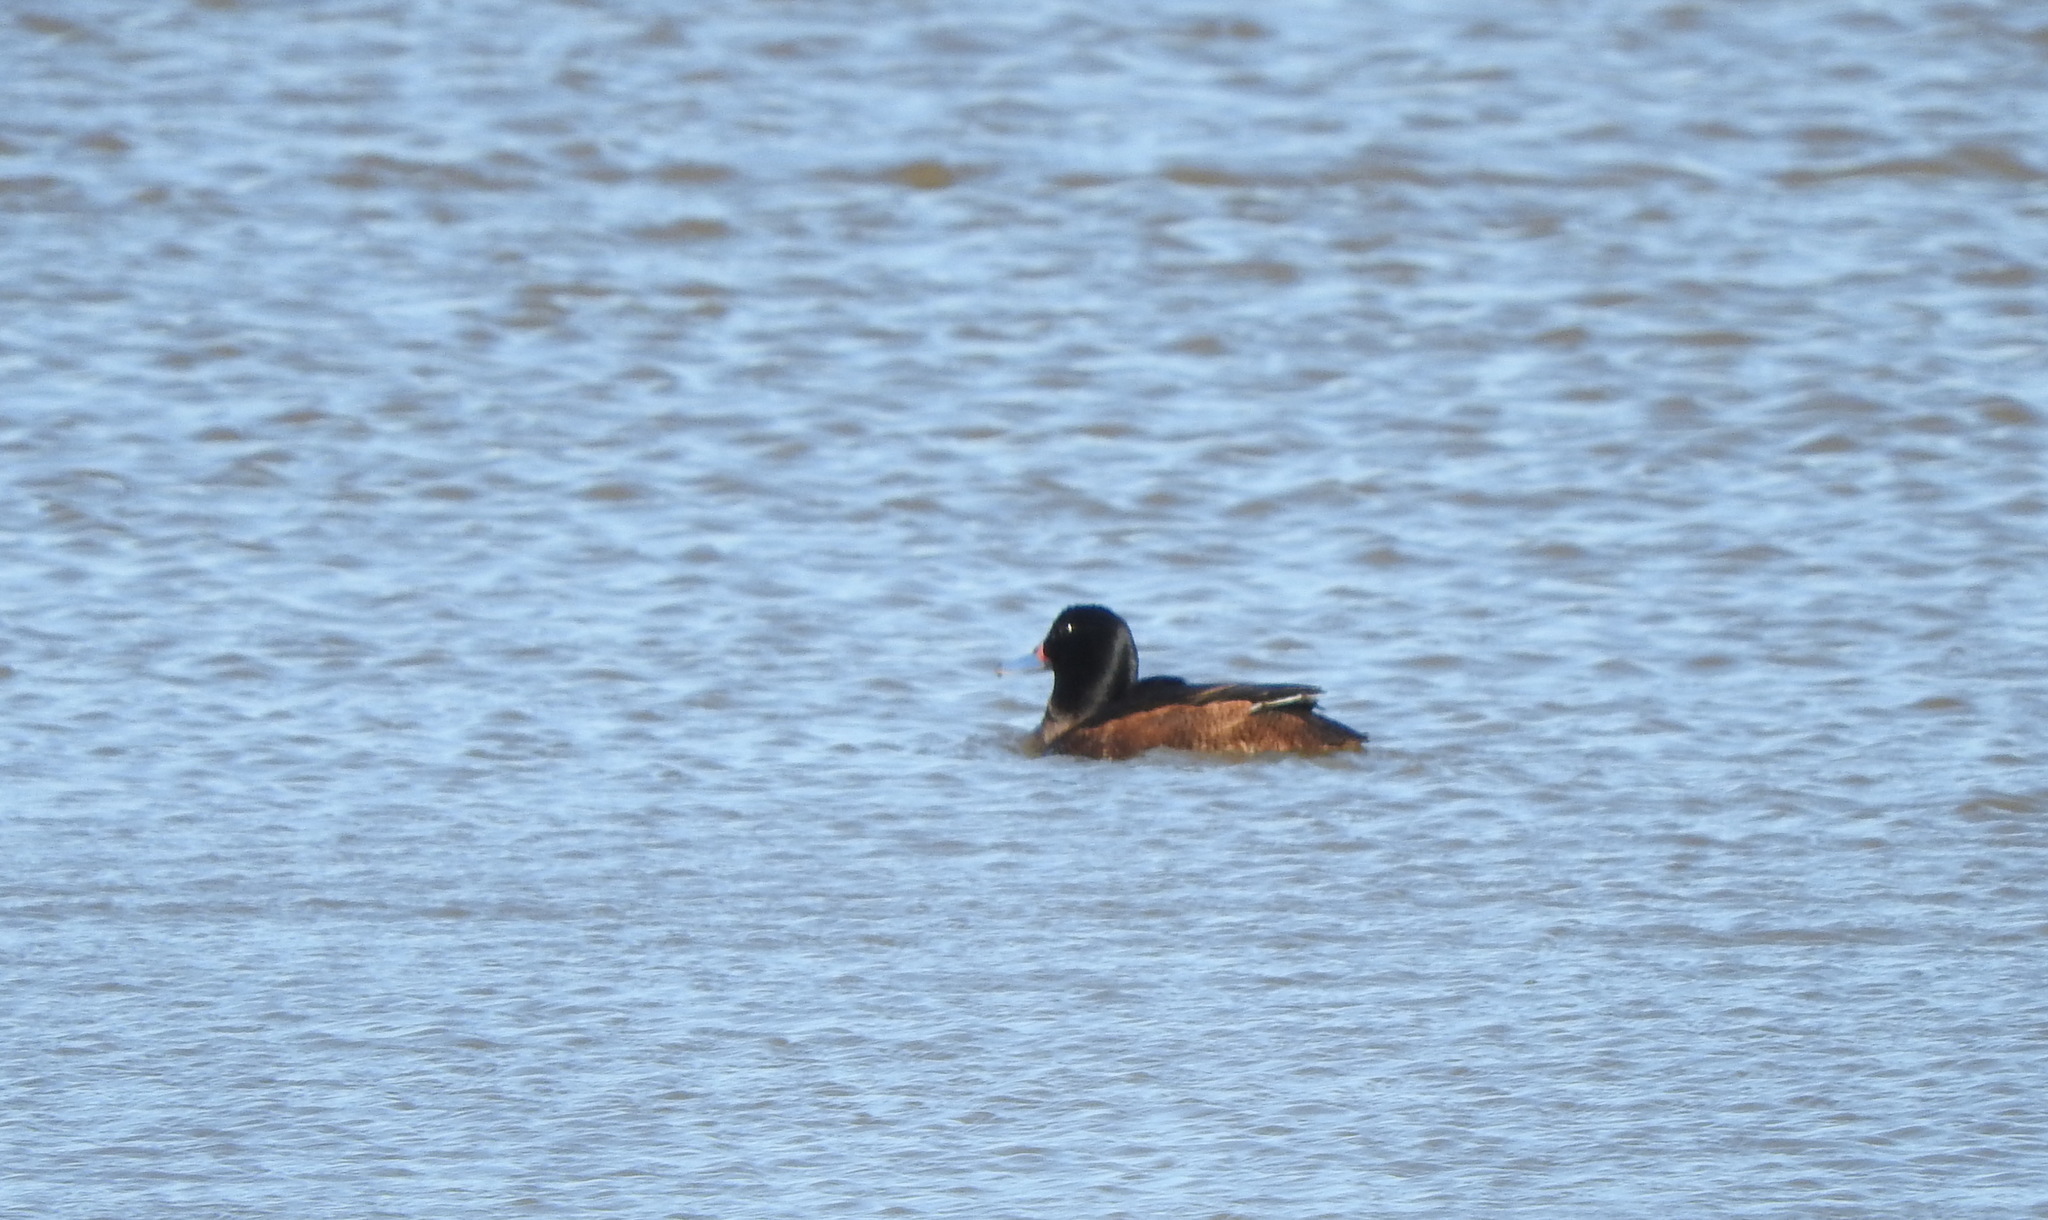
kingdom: Animalia
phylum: Chordata
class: Aves
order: Anseriformes
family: Anatidae
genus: Heteronetta
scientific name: Heteronetta atricapilla
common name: Black-headed duck
